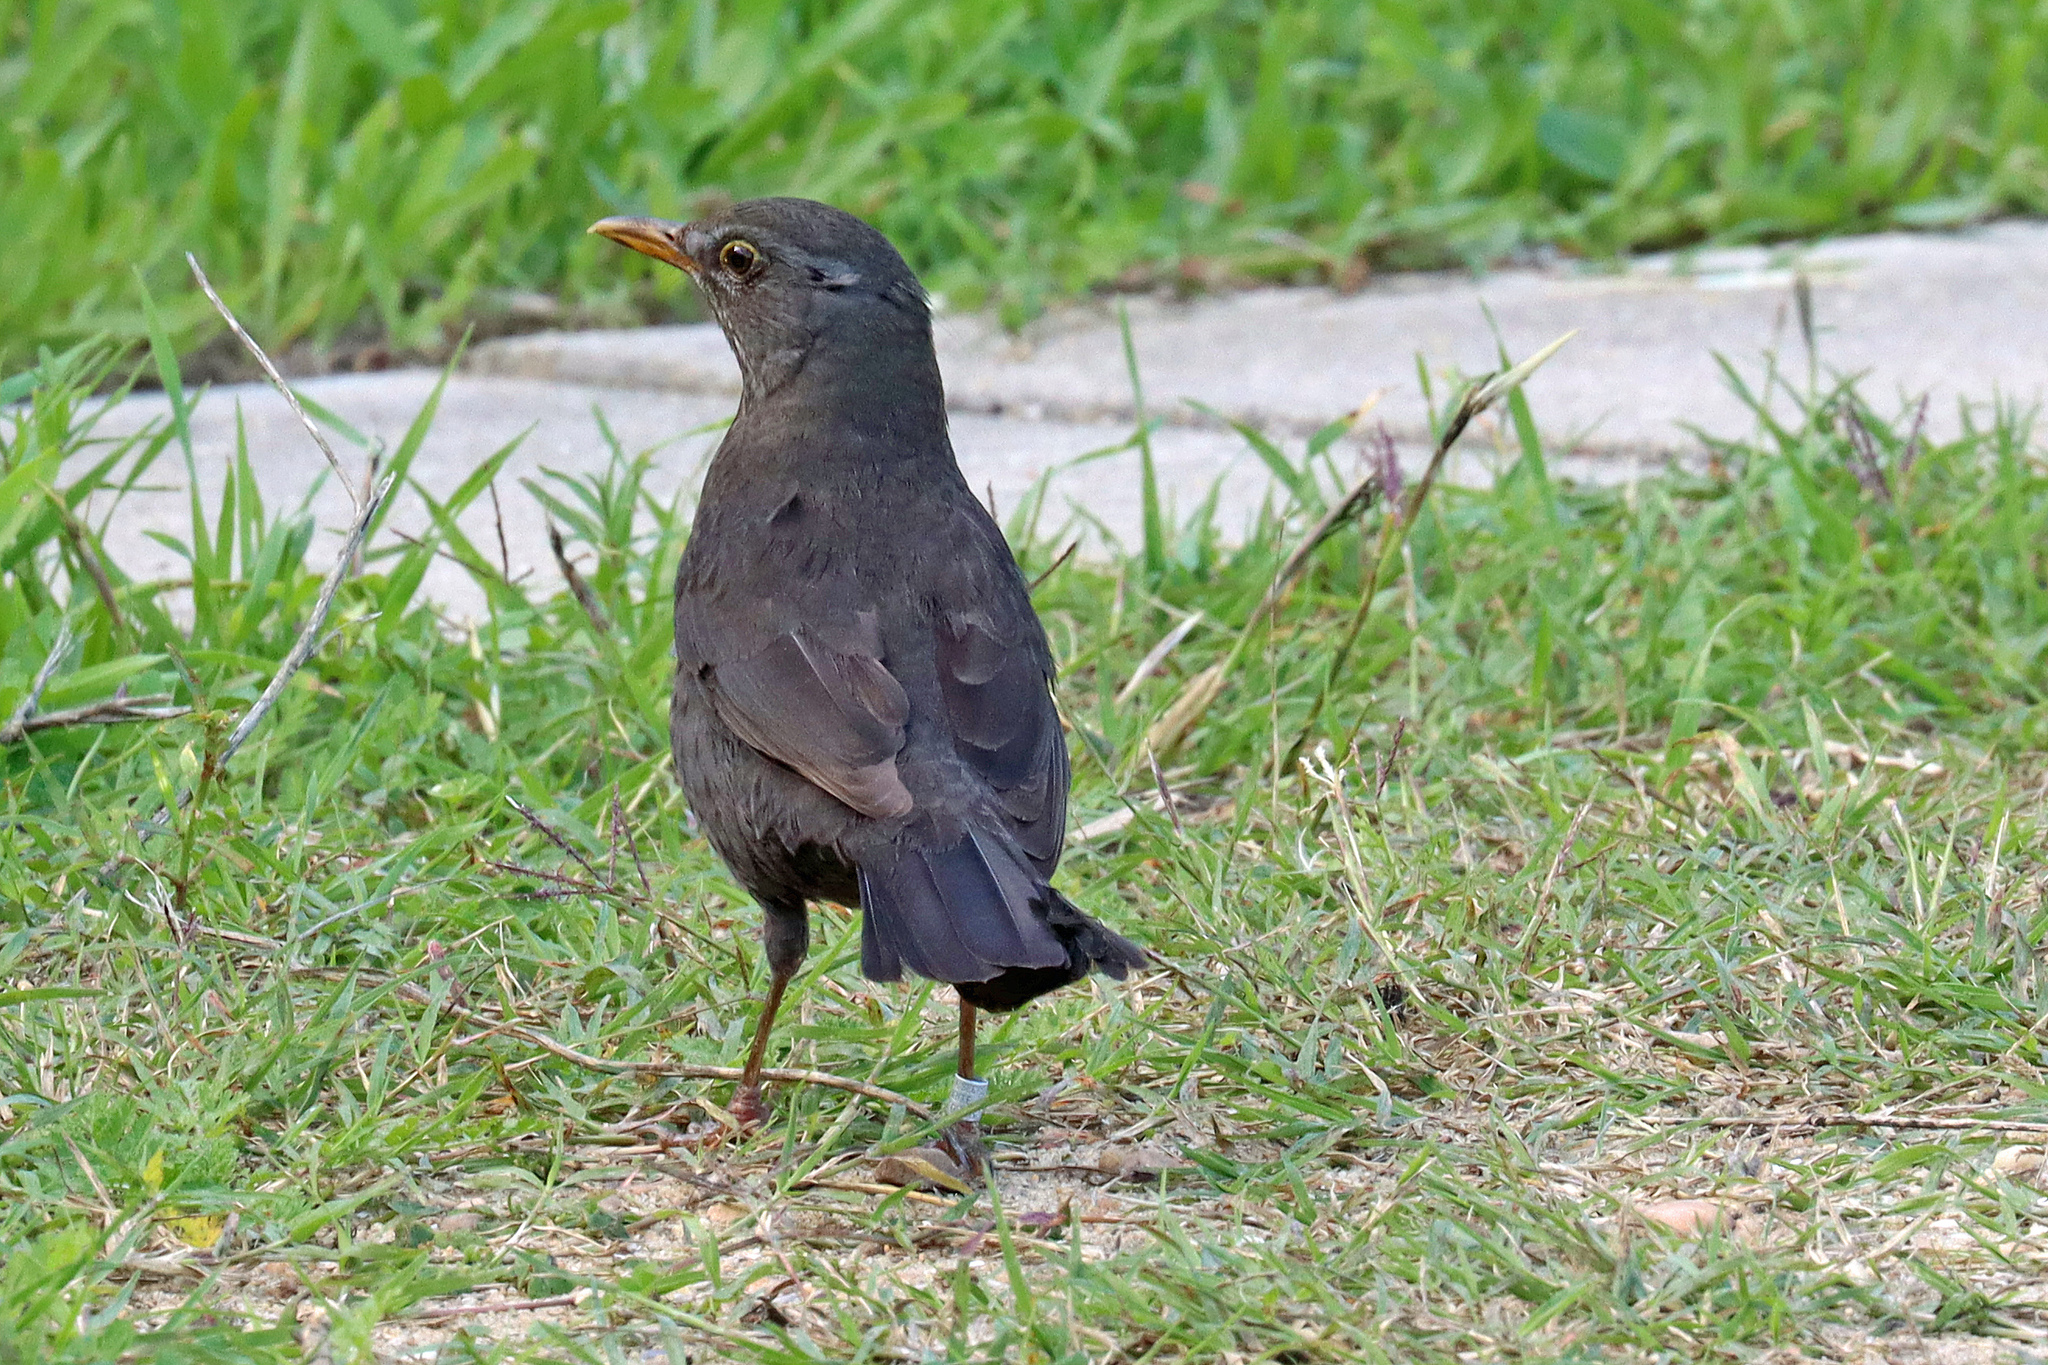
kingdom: Animalia
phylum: Chordata
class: Aves
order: Passeriformes
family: Turdidae
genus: Turdus
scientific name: Turdus merula
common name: Common blackbird
